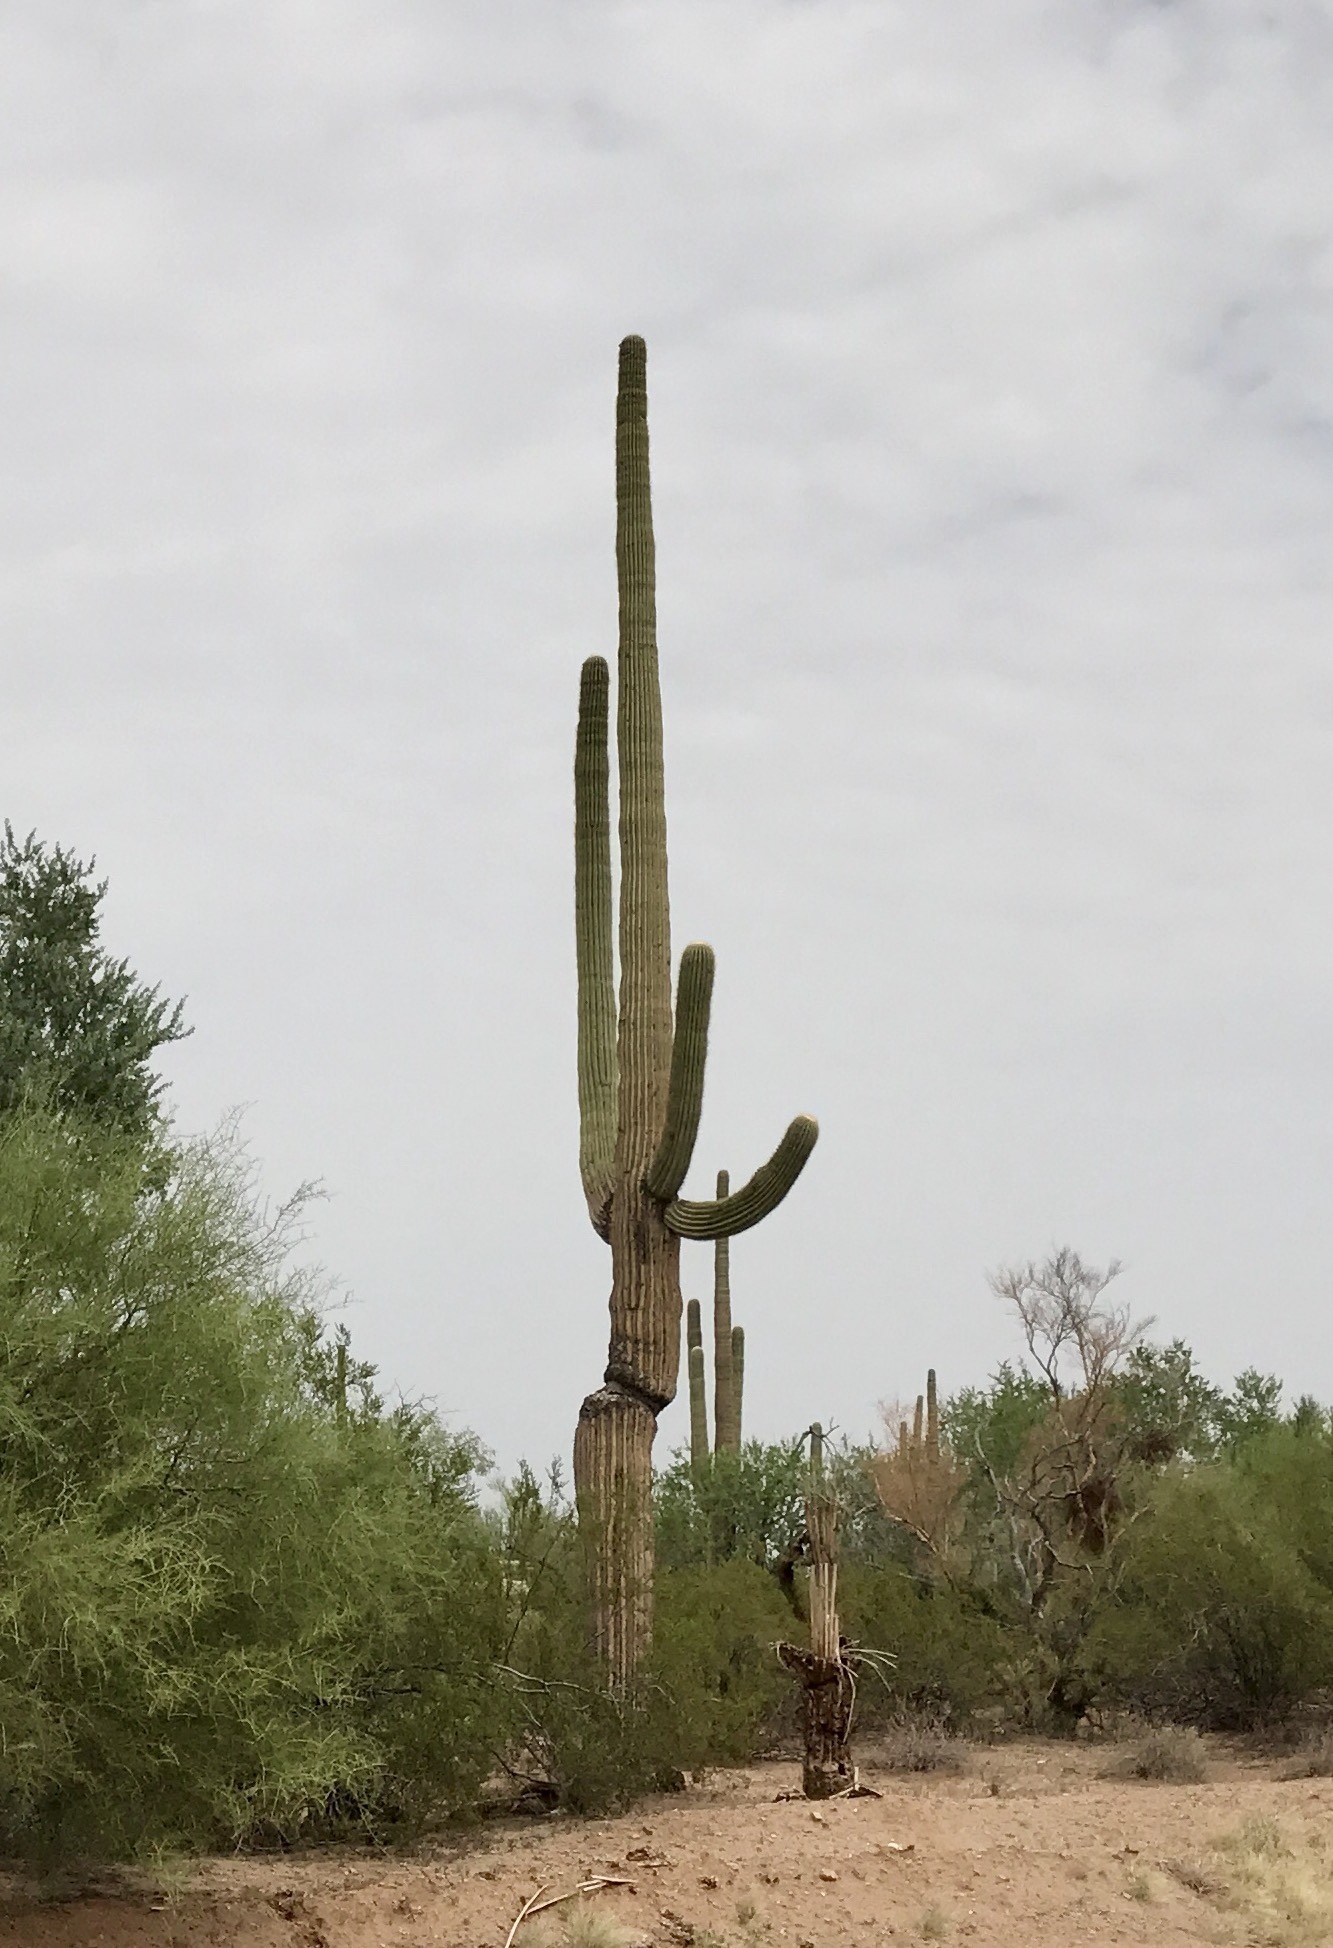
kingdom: Plantae
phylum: Tracheophyta
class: Magnoliopsida
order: Caryophyllales
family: Cactaceae
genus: Carnegiea
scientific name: Carnegiea gigantea
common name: Saguaro
